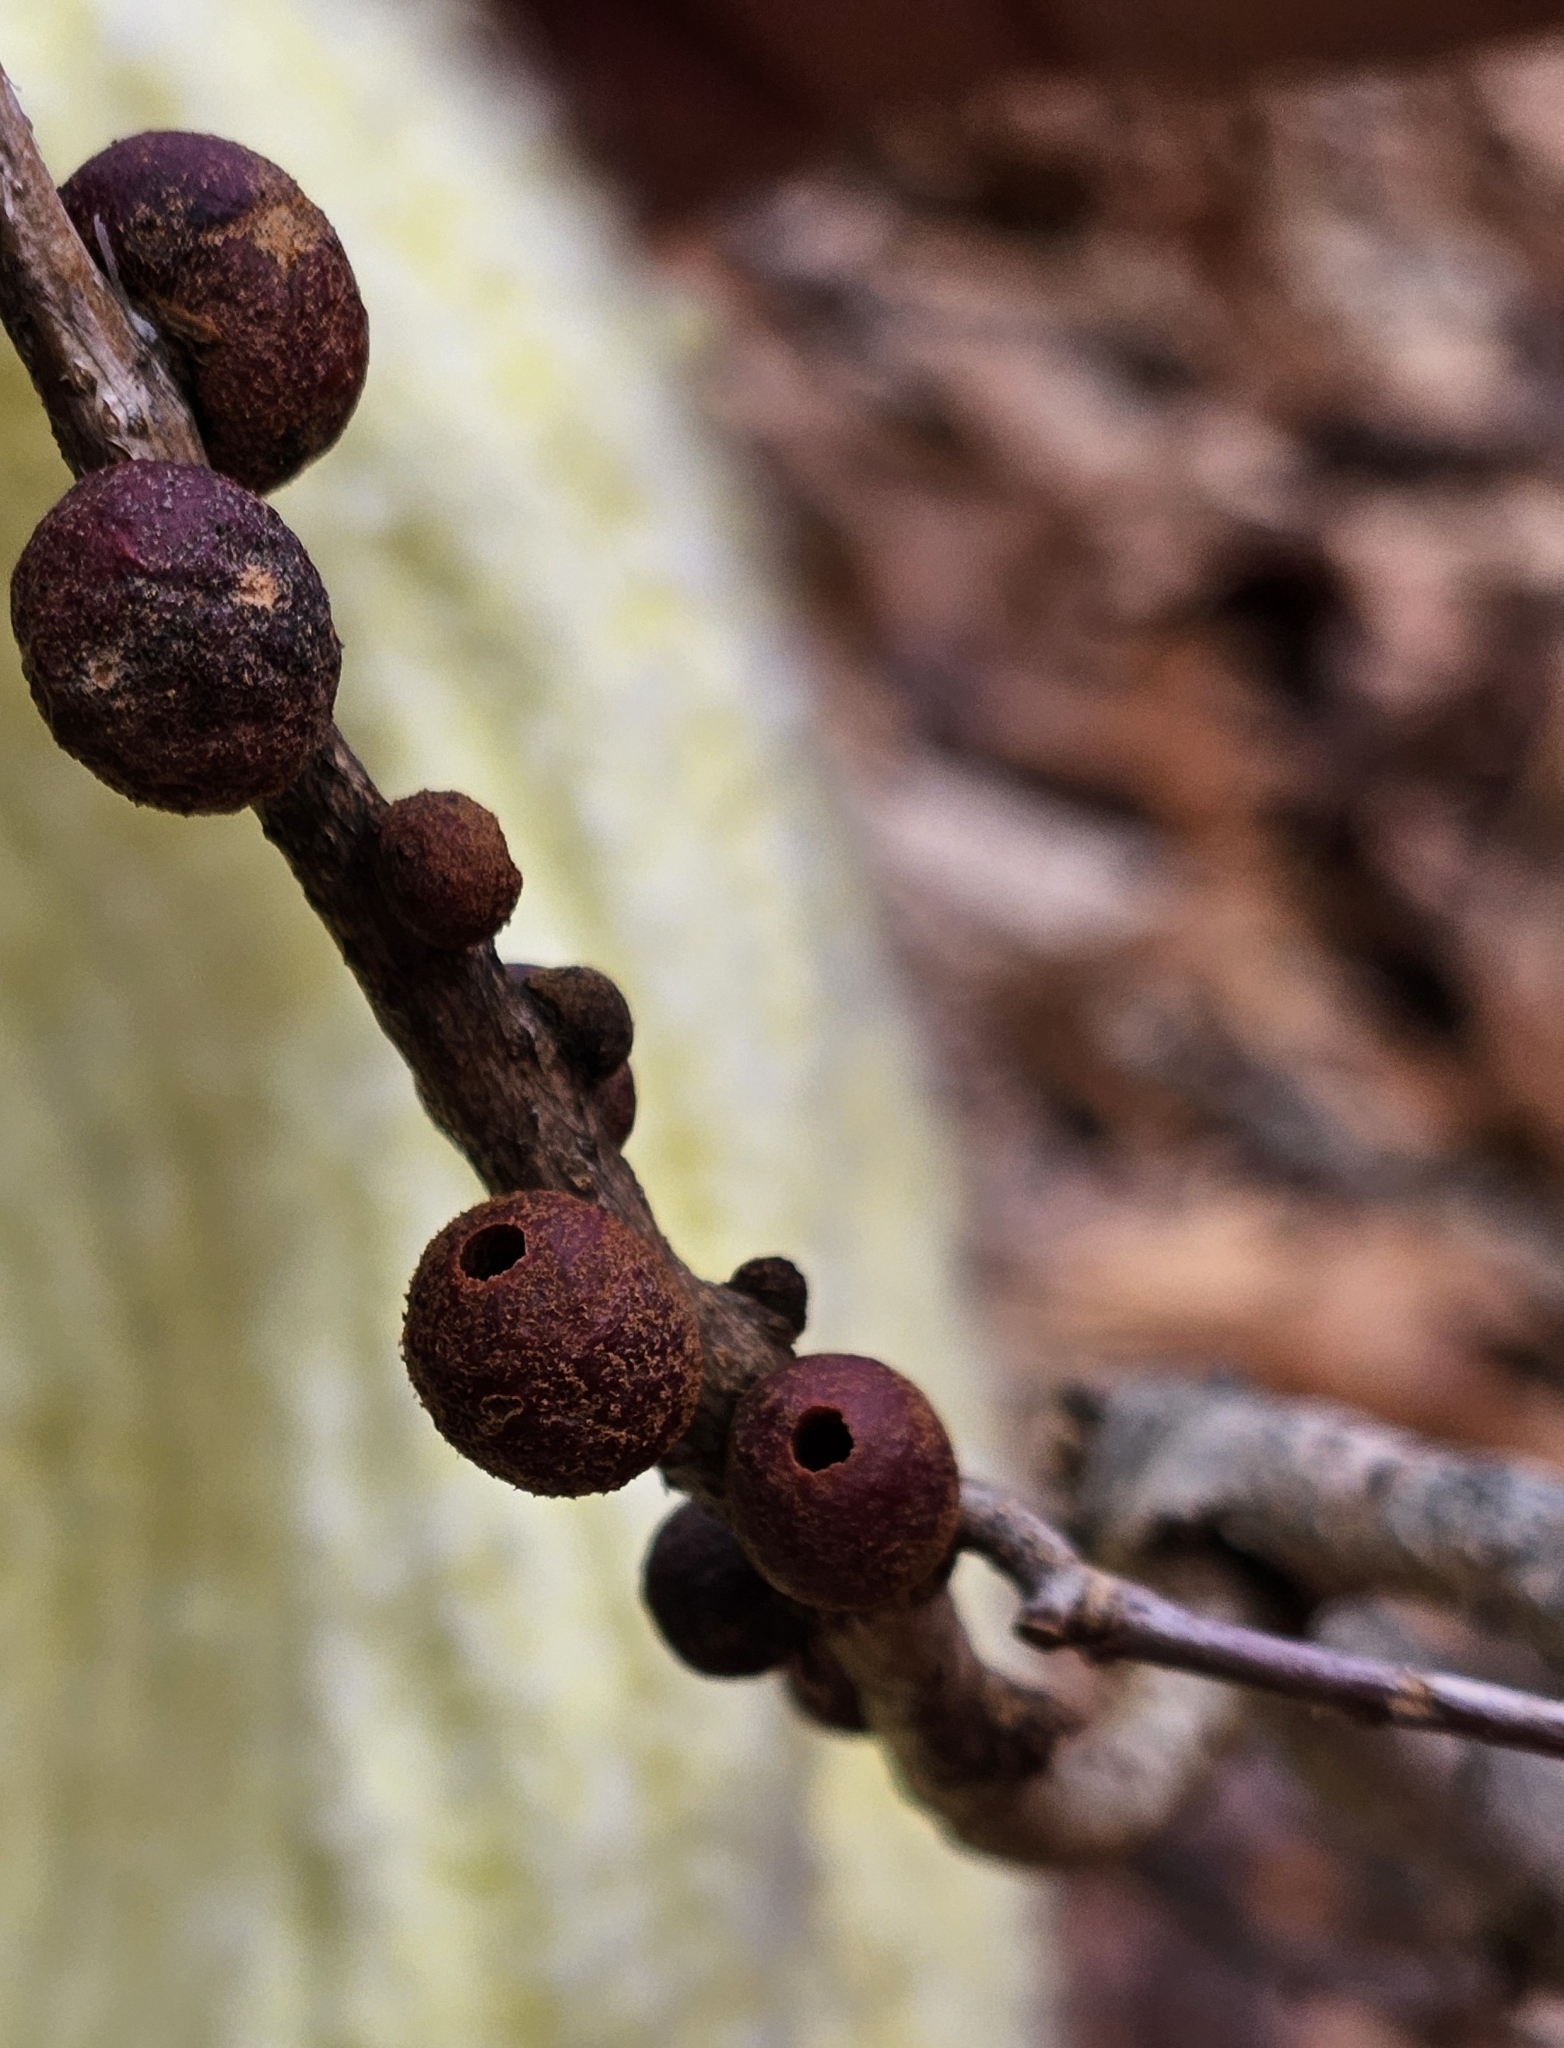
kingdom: Animalia
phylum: Arthropoda
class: Insecta
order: Hymenoptera
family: Cynipidae
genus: Disholcaspis
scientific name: Disholcaspis
